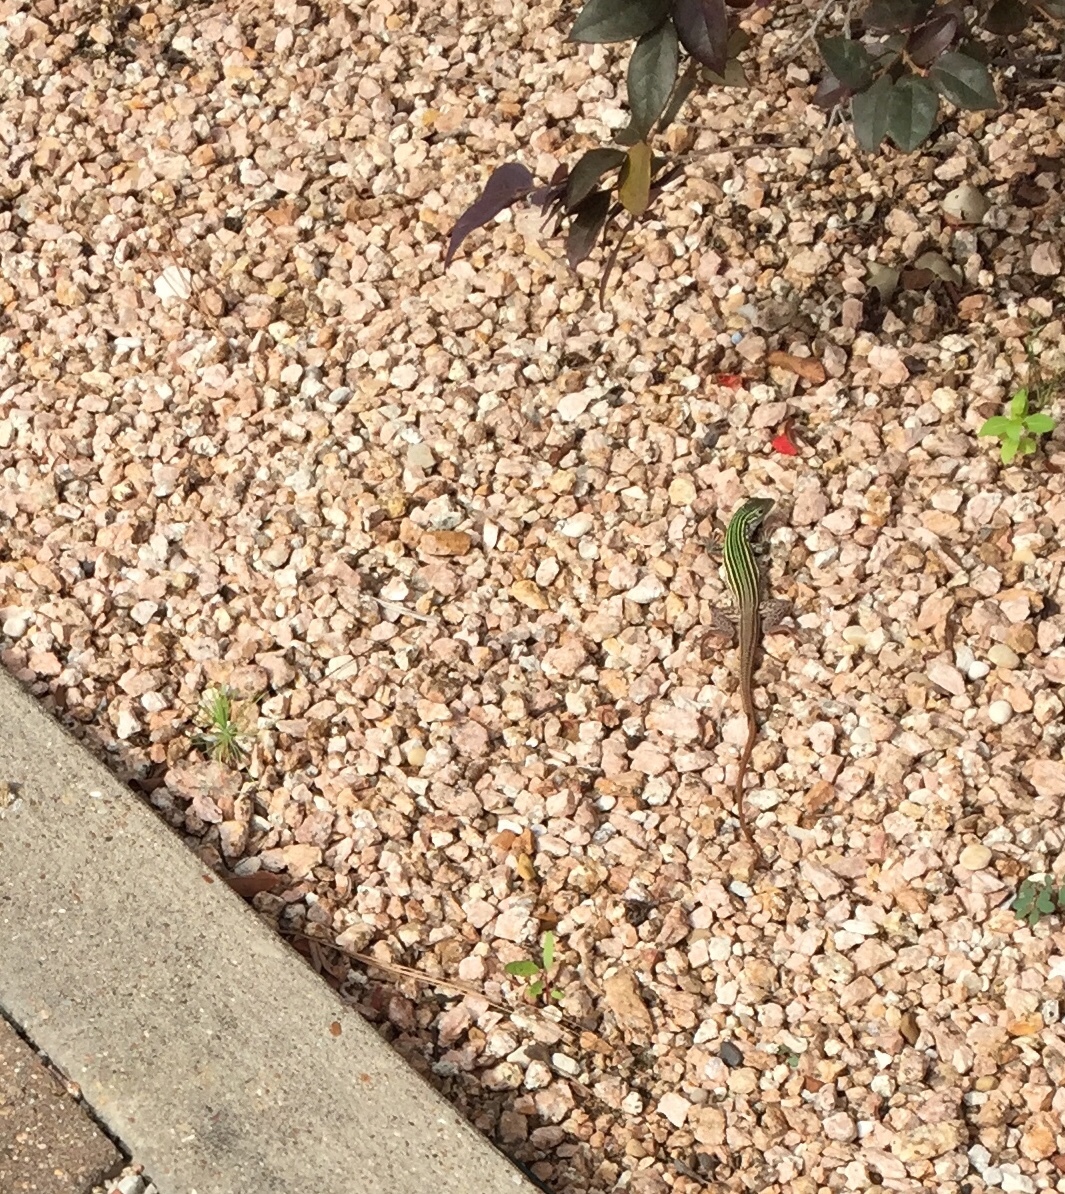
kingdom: Animalia
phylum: Chordata
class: Squamata
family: Teiidae
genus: Aspidoscelis
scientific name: Aspidoscelis gularis
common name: Eastern spotted whiptail
